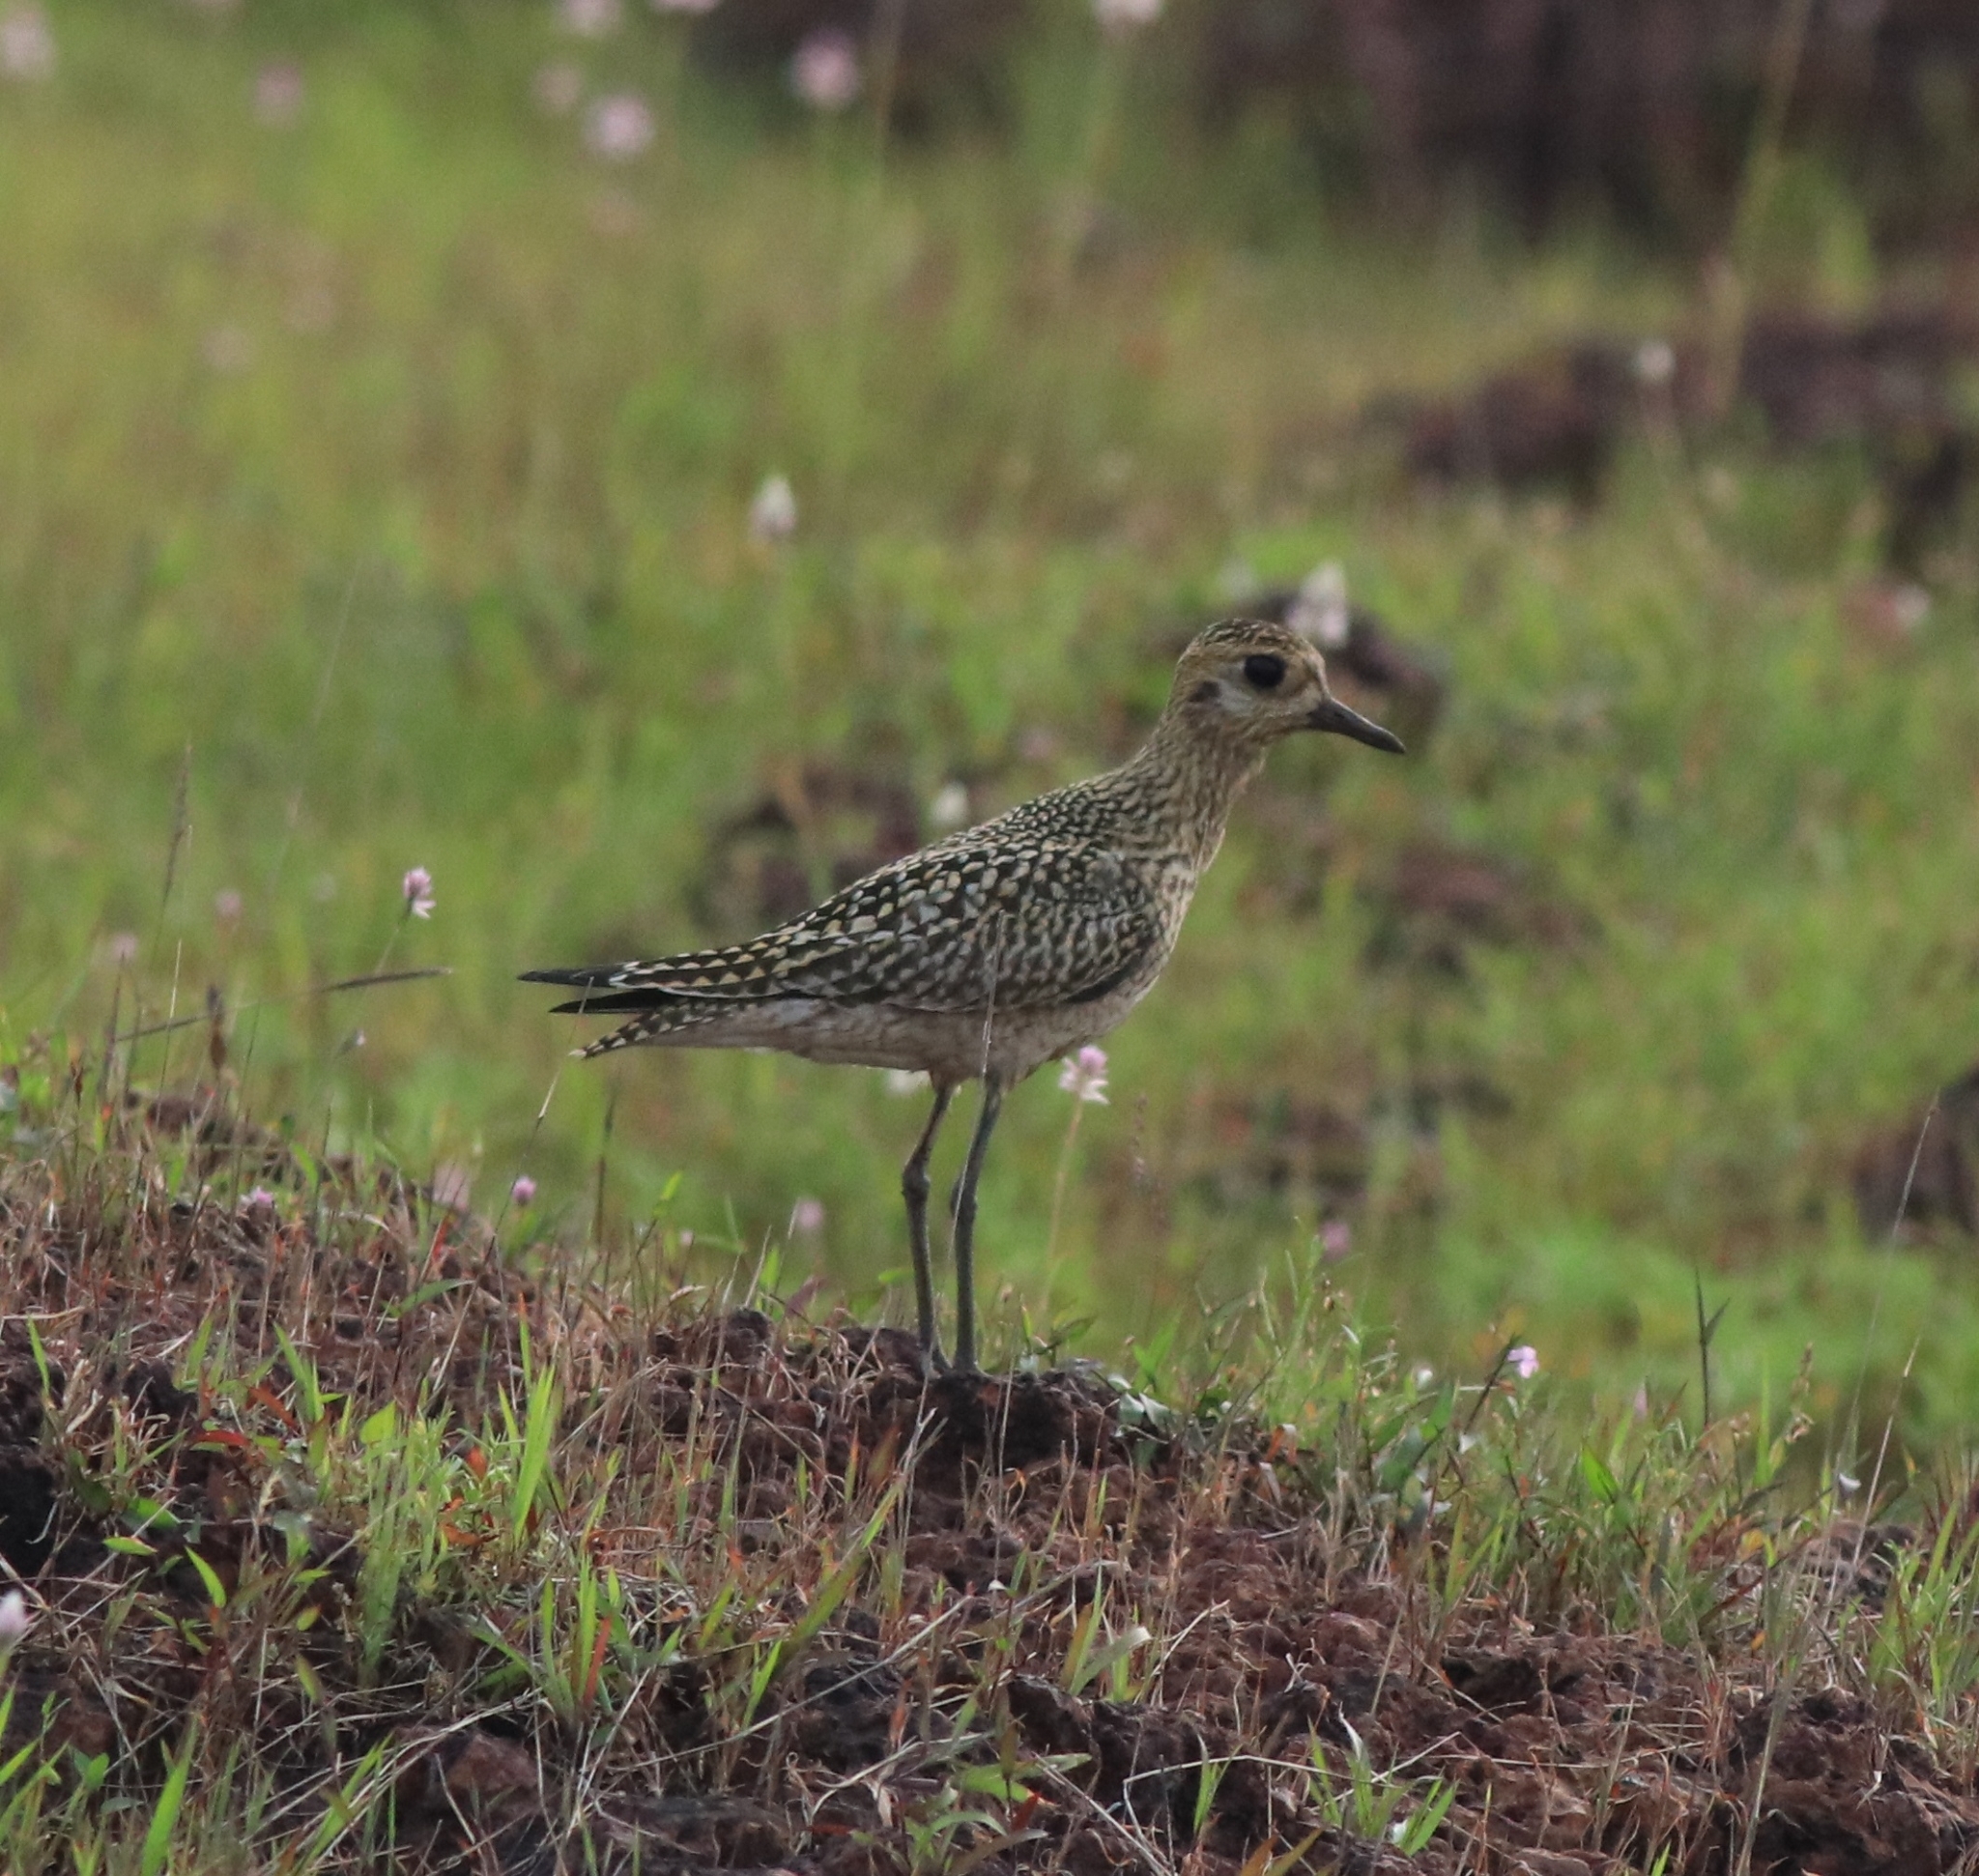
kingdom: Animalia
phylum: Chordata
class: Aves
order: Charadriiformes
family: Charadriidae
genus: Pluvialis
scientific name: Pluvialis fulva
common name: Pacific golden plover
